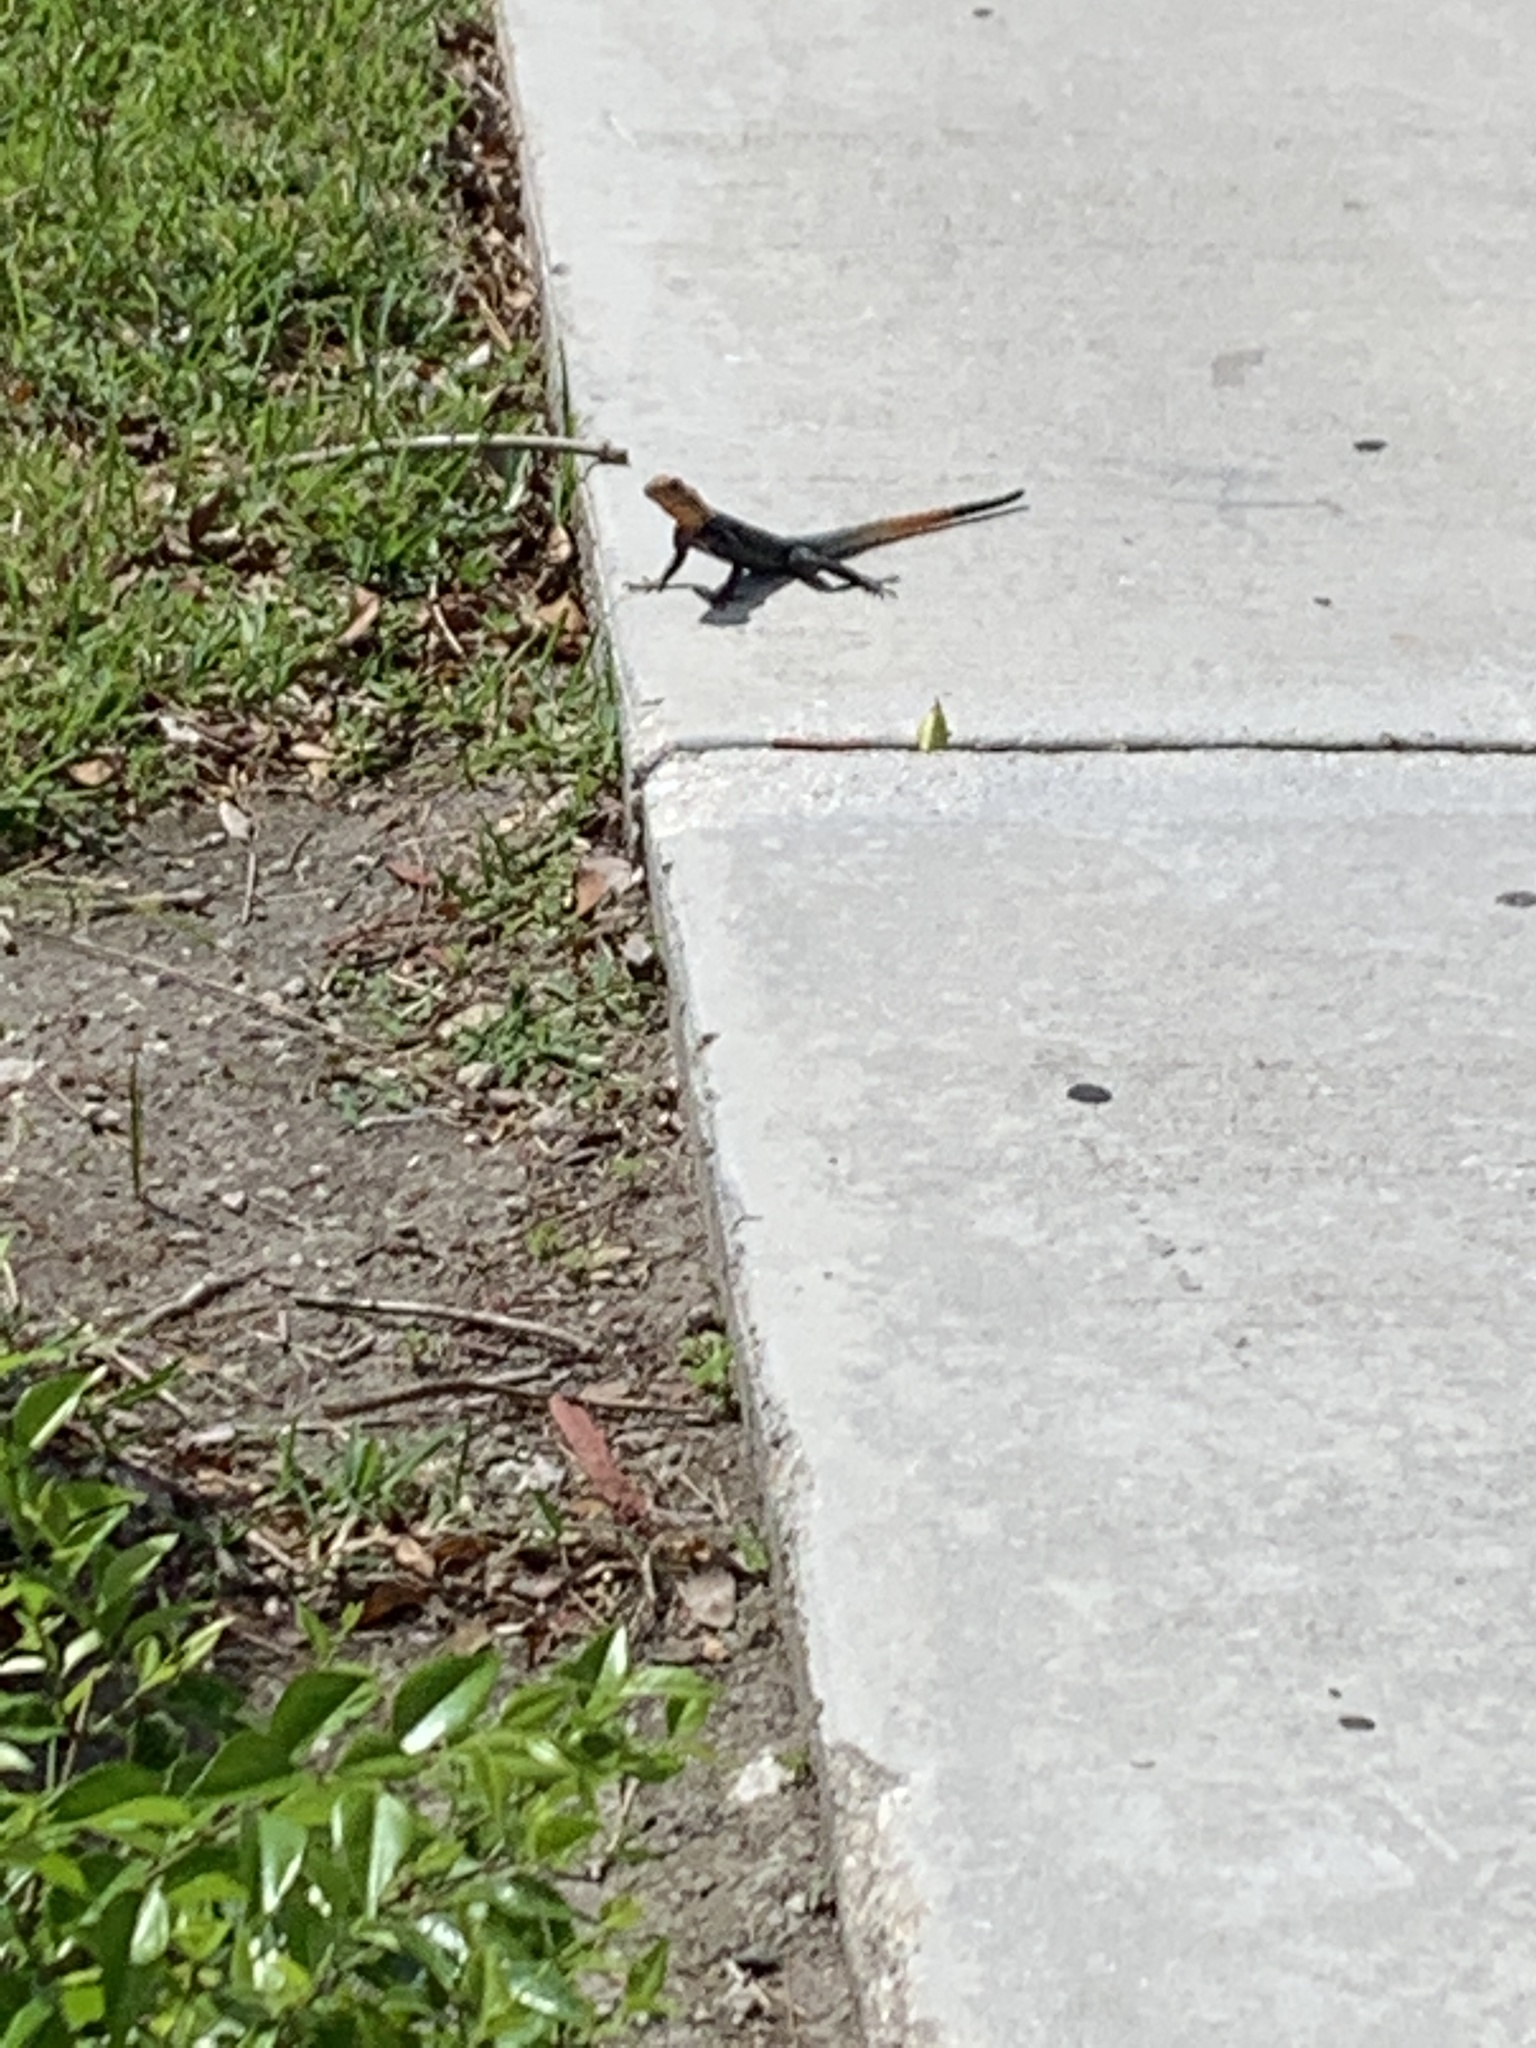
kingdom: Animalia
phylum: Chordata
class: Squamata
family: Agamidae
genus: Agama
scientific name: Agama picticauda
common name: Red-headed agama
